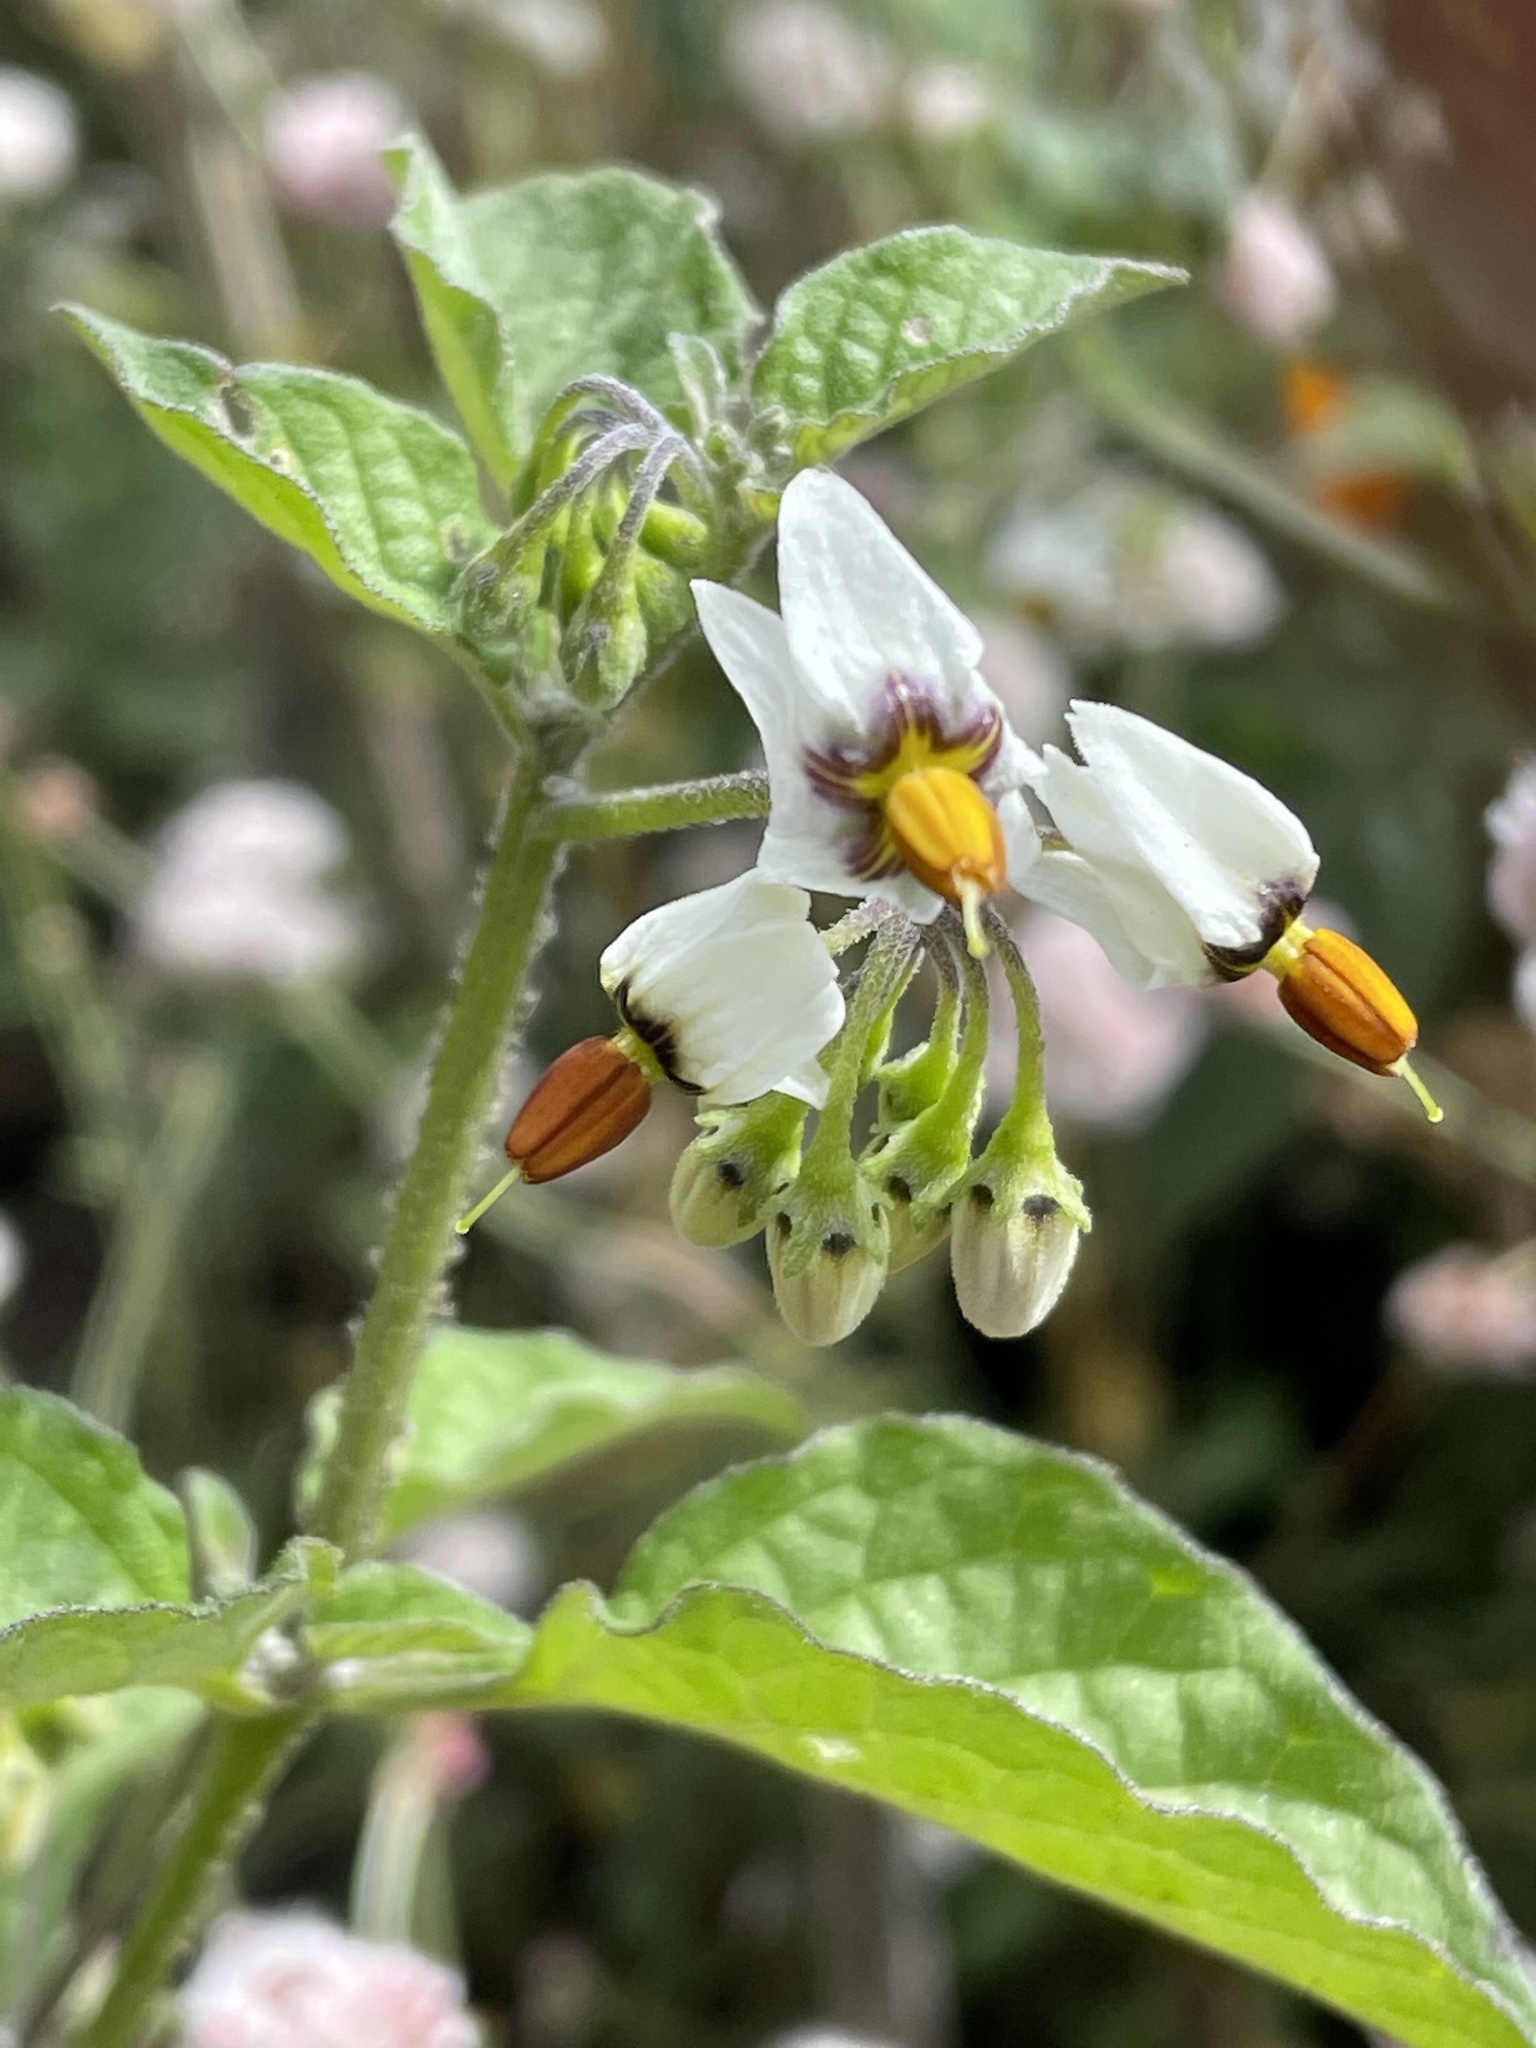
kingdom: Plantae
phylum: Tracheophyta
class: Magnoliopsida
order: Solanales
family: Solanaceae
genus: Solanum
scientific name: Solanum douglasii
